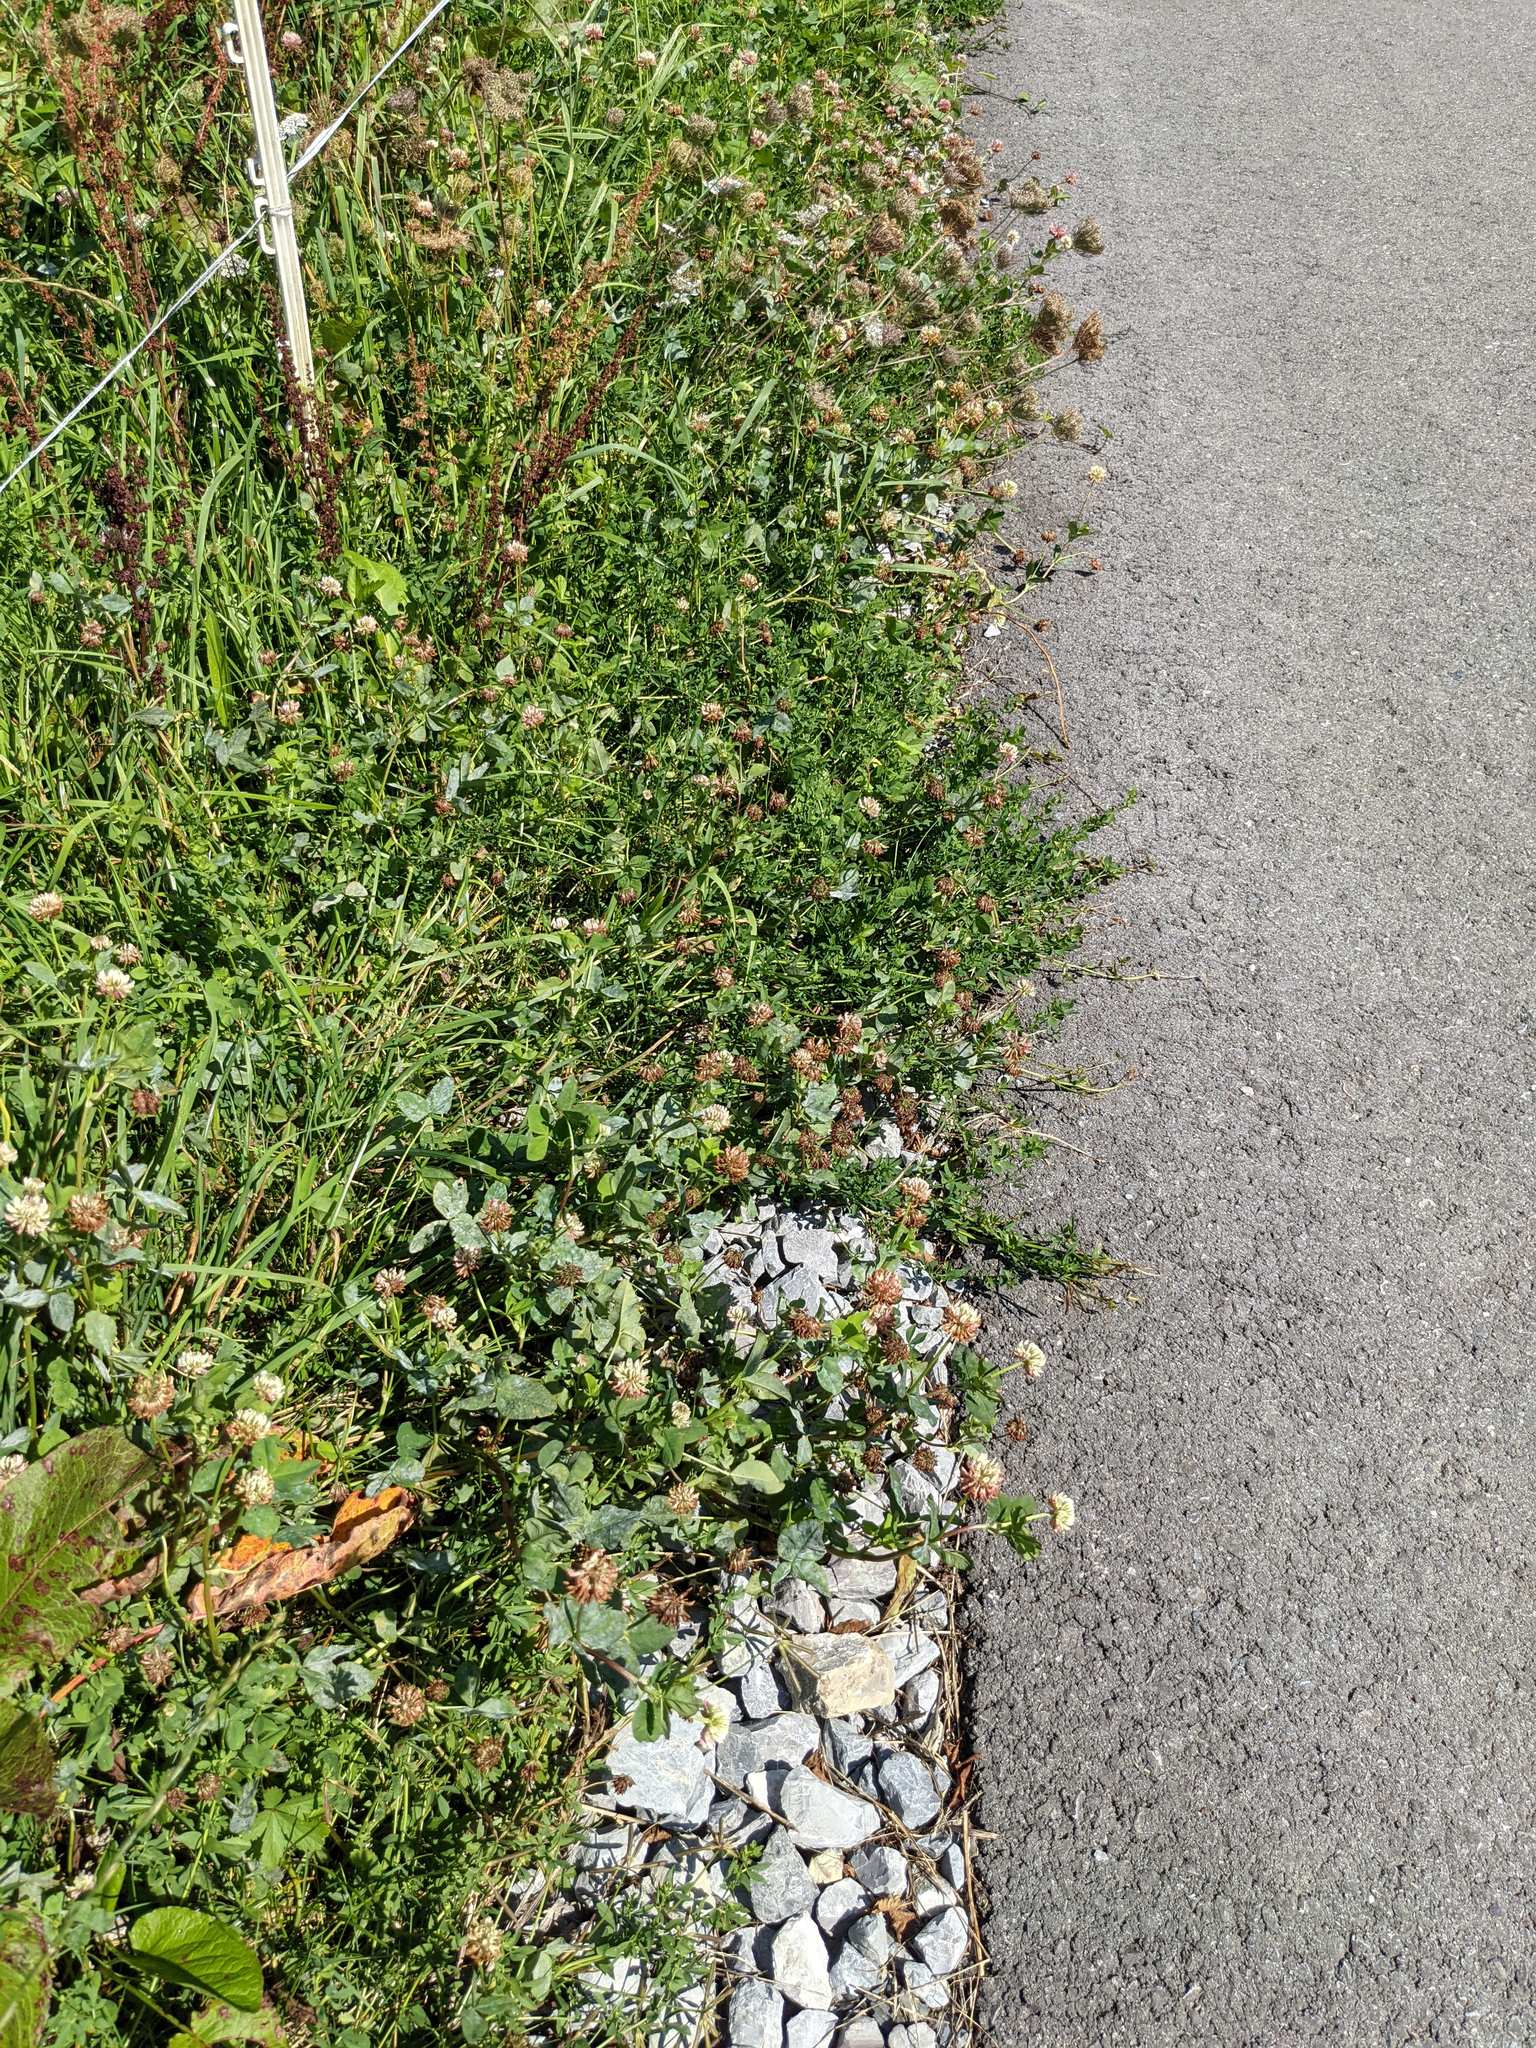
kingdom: Plantae
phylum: Tracheophyta
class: Magnoliopsida
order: Fabales
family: Fabaceae
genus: Trifolium
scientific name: Trifolium hybridum
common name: Alsike clover
